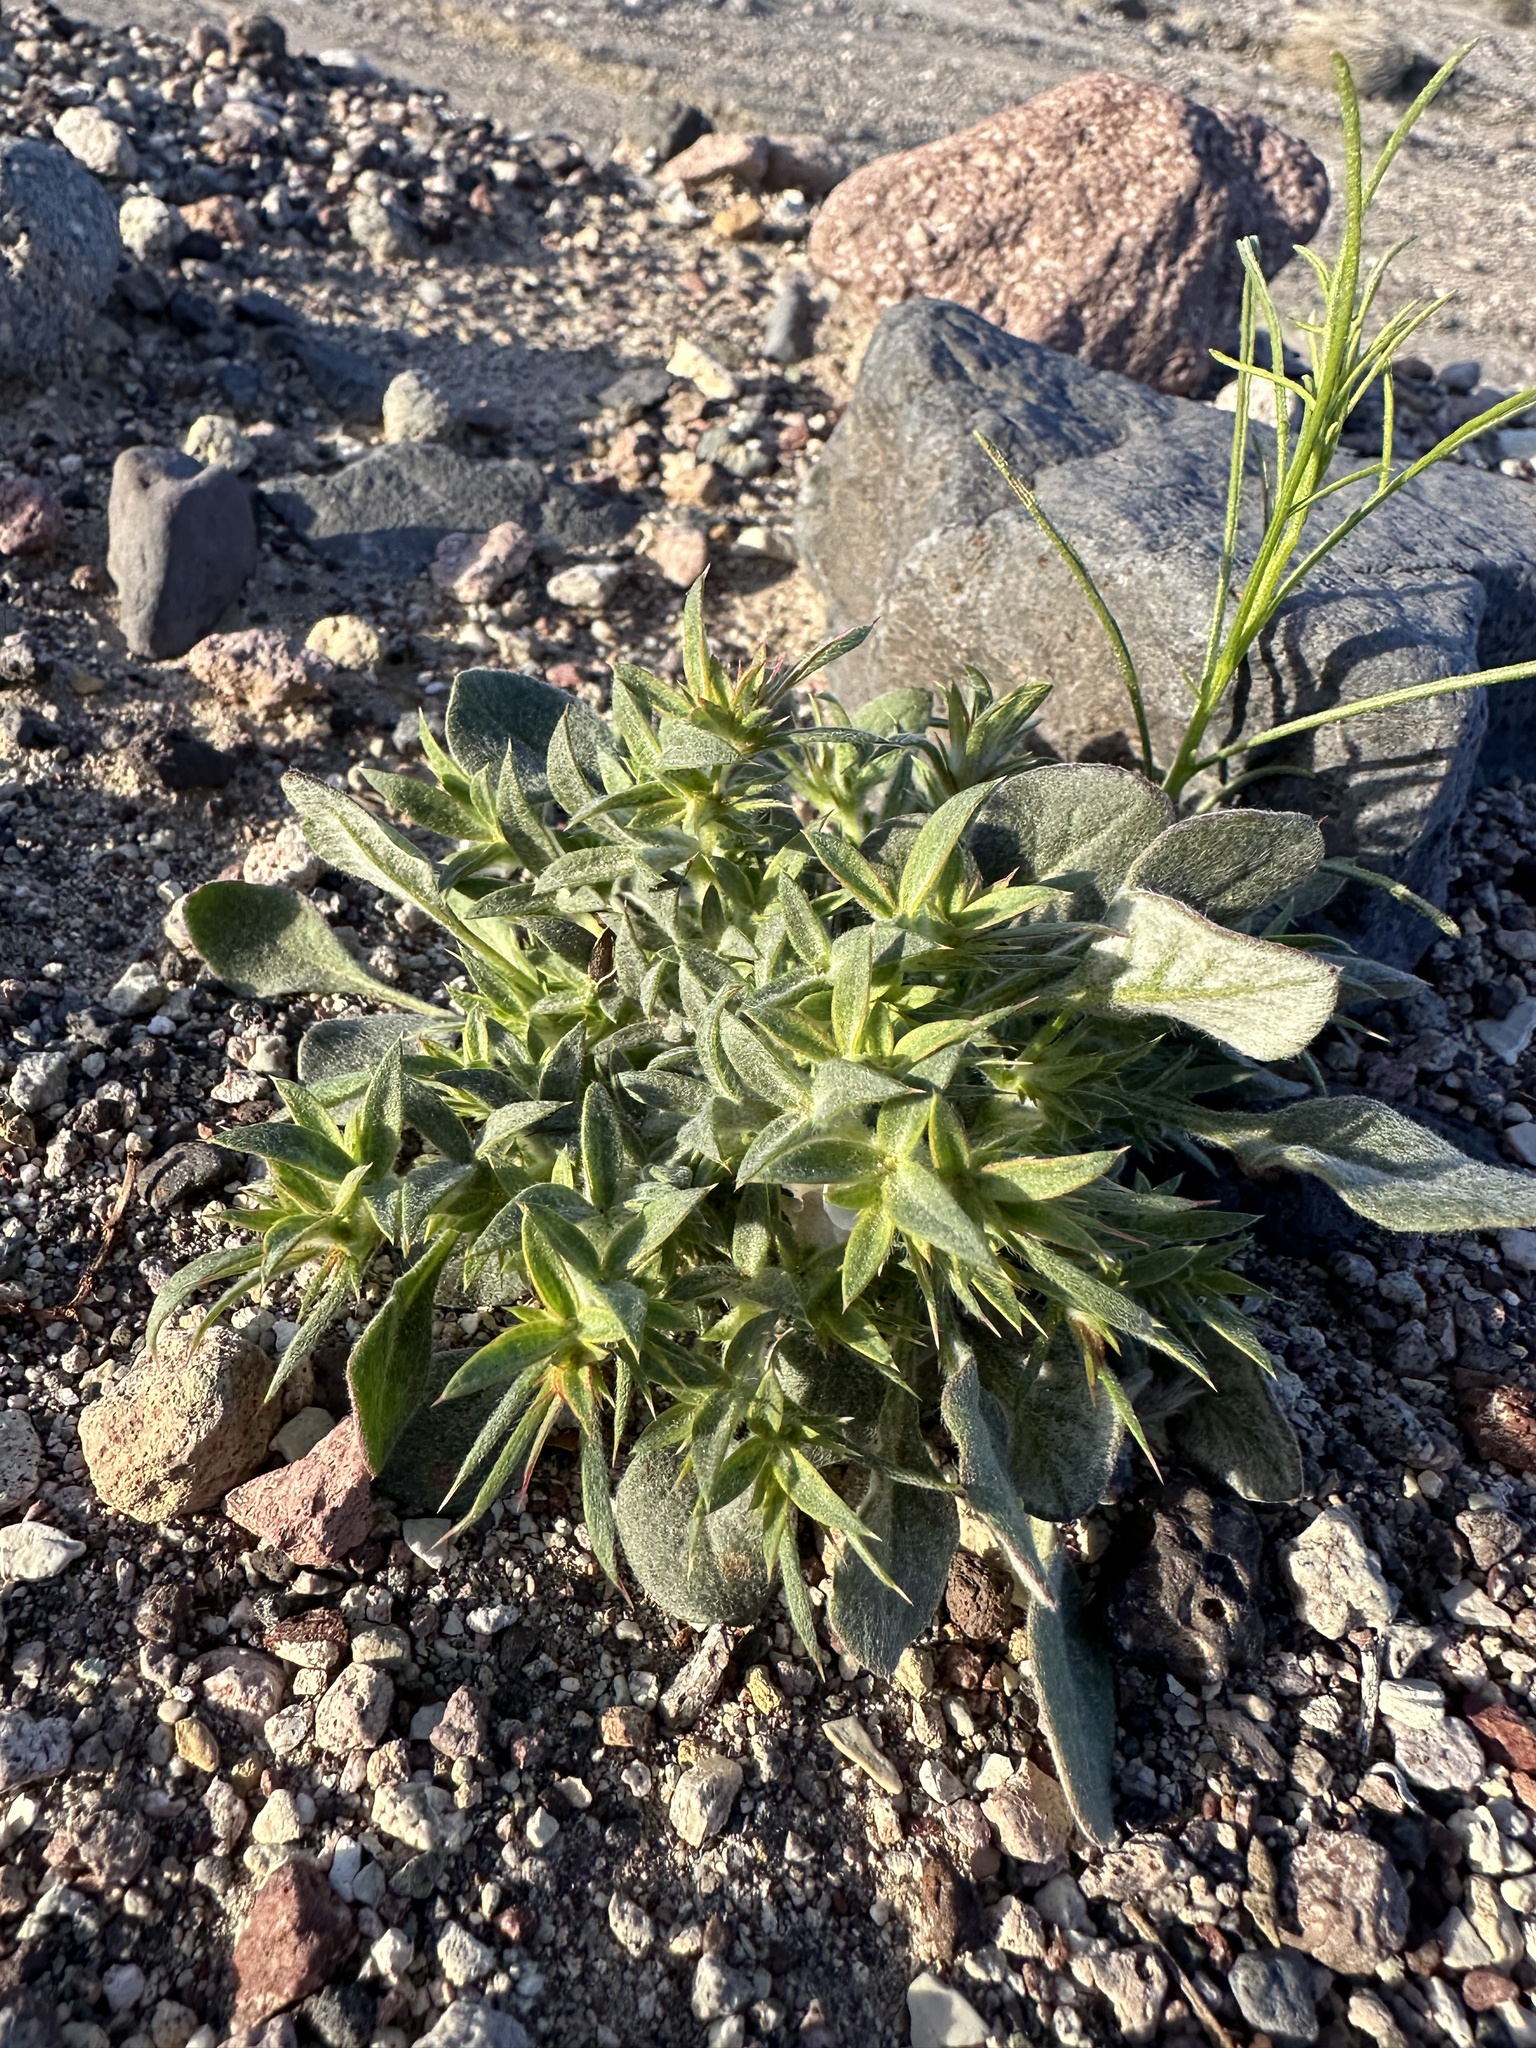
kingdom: Plantae
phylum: Tracheophyta
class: Magnoliopsida
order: Caryophyllales
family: Polygonaceae
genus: Chorizanthe
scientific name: Chorizanthe rigida
